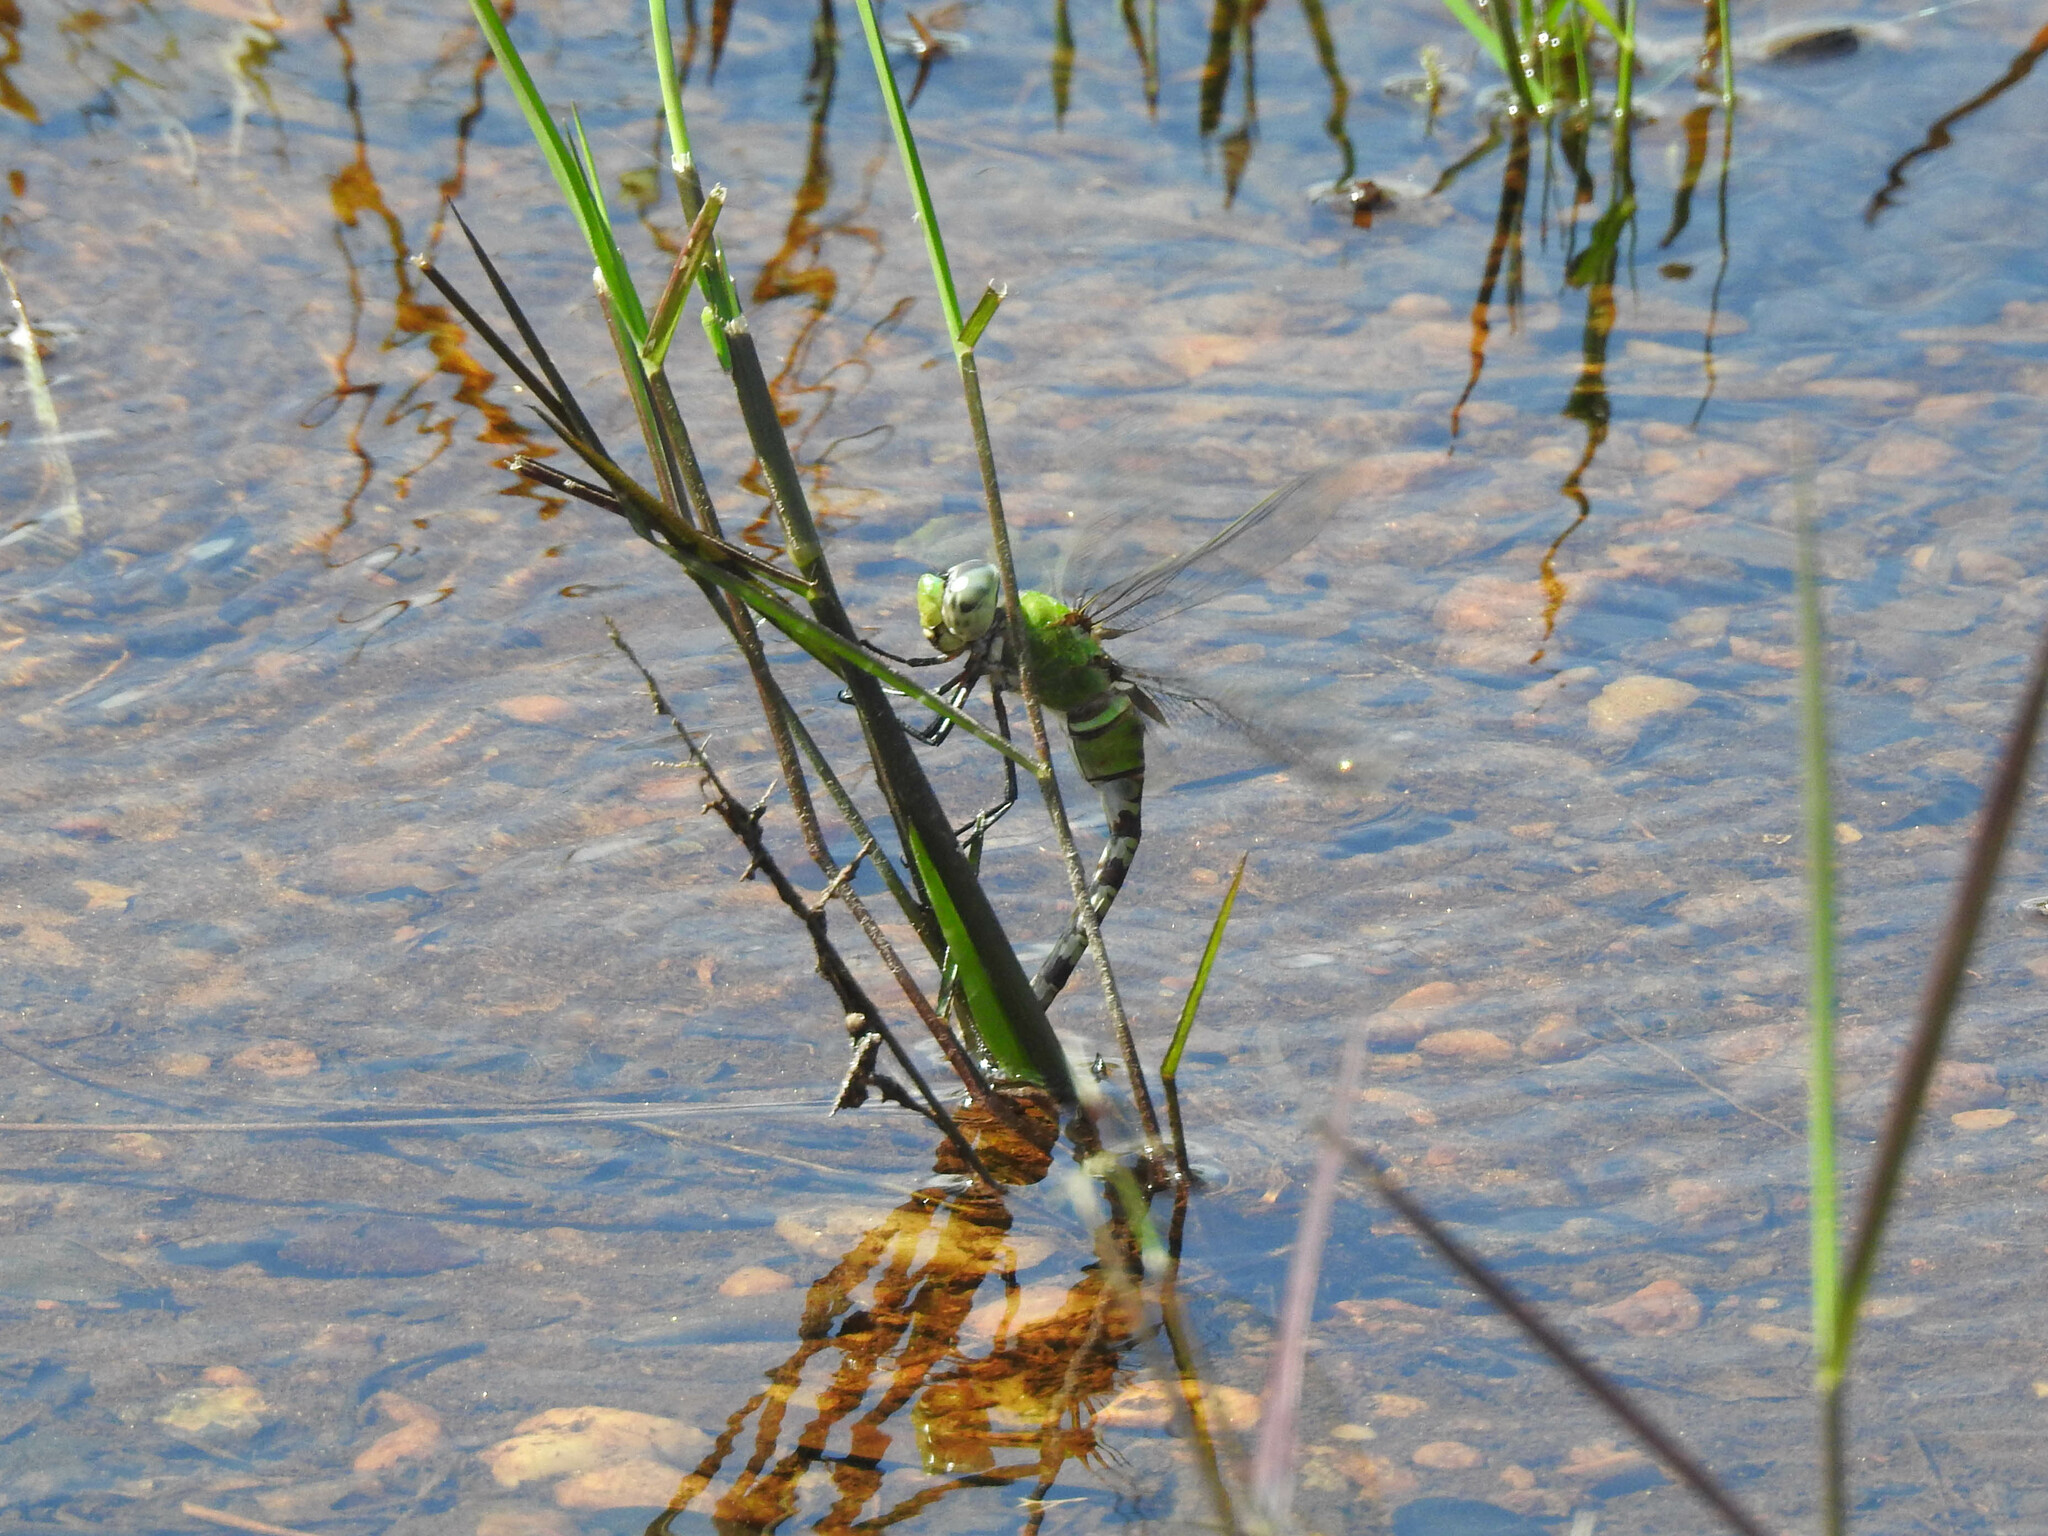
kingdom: Animalia
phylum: Arthropoda
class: Insecta
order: Odonata
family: Aeshnidae
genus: Anax
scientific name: Anax amazili
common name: Amazon darner
